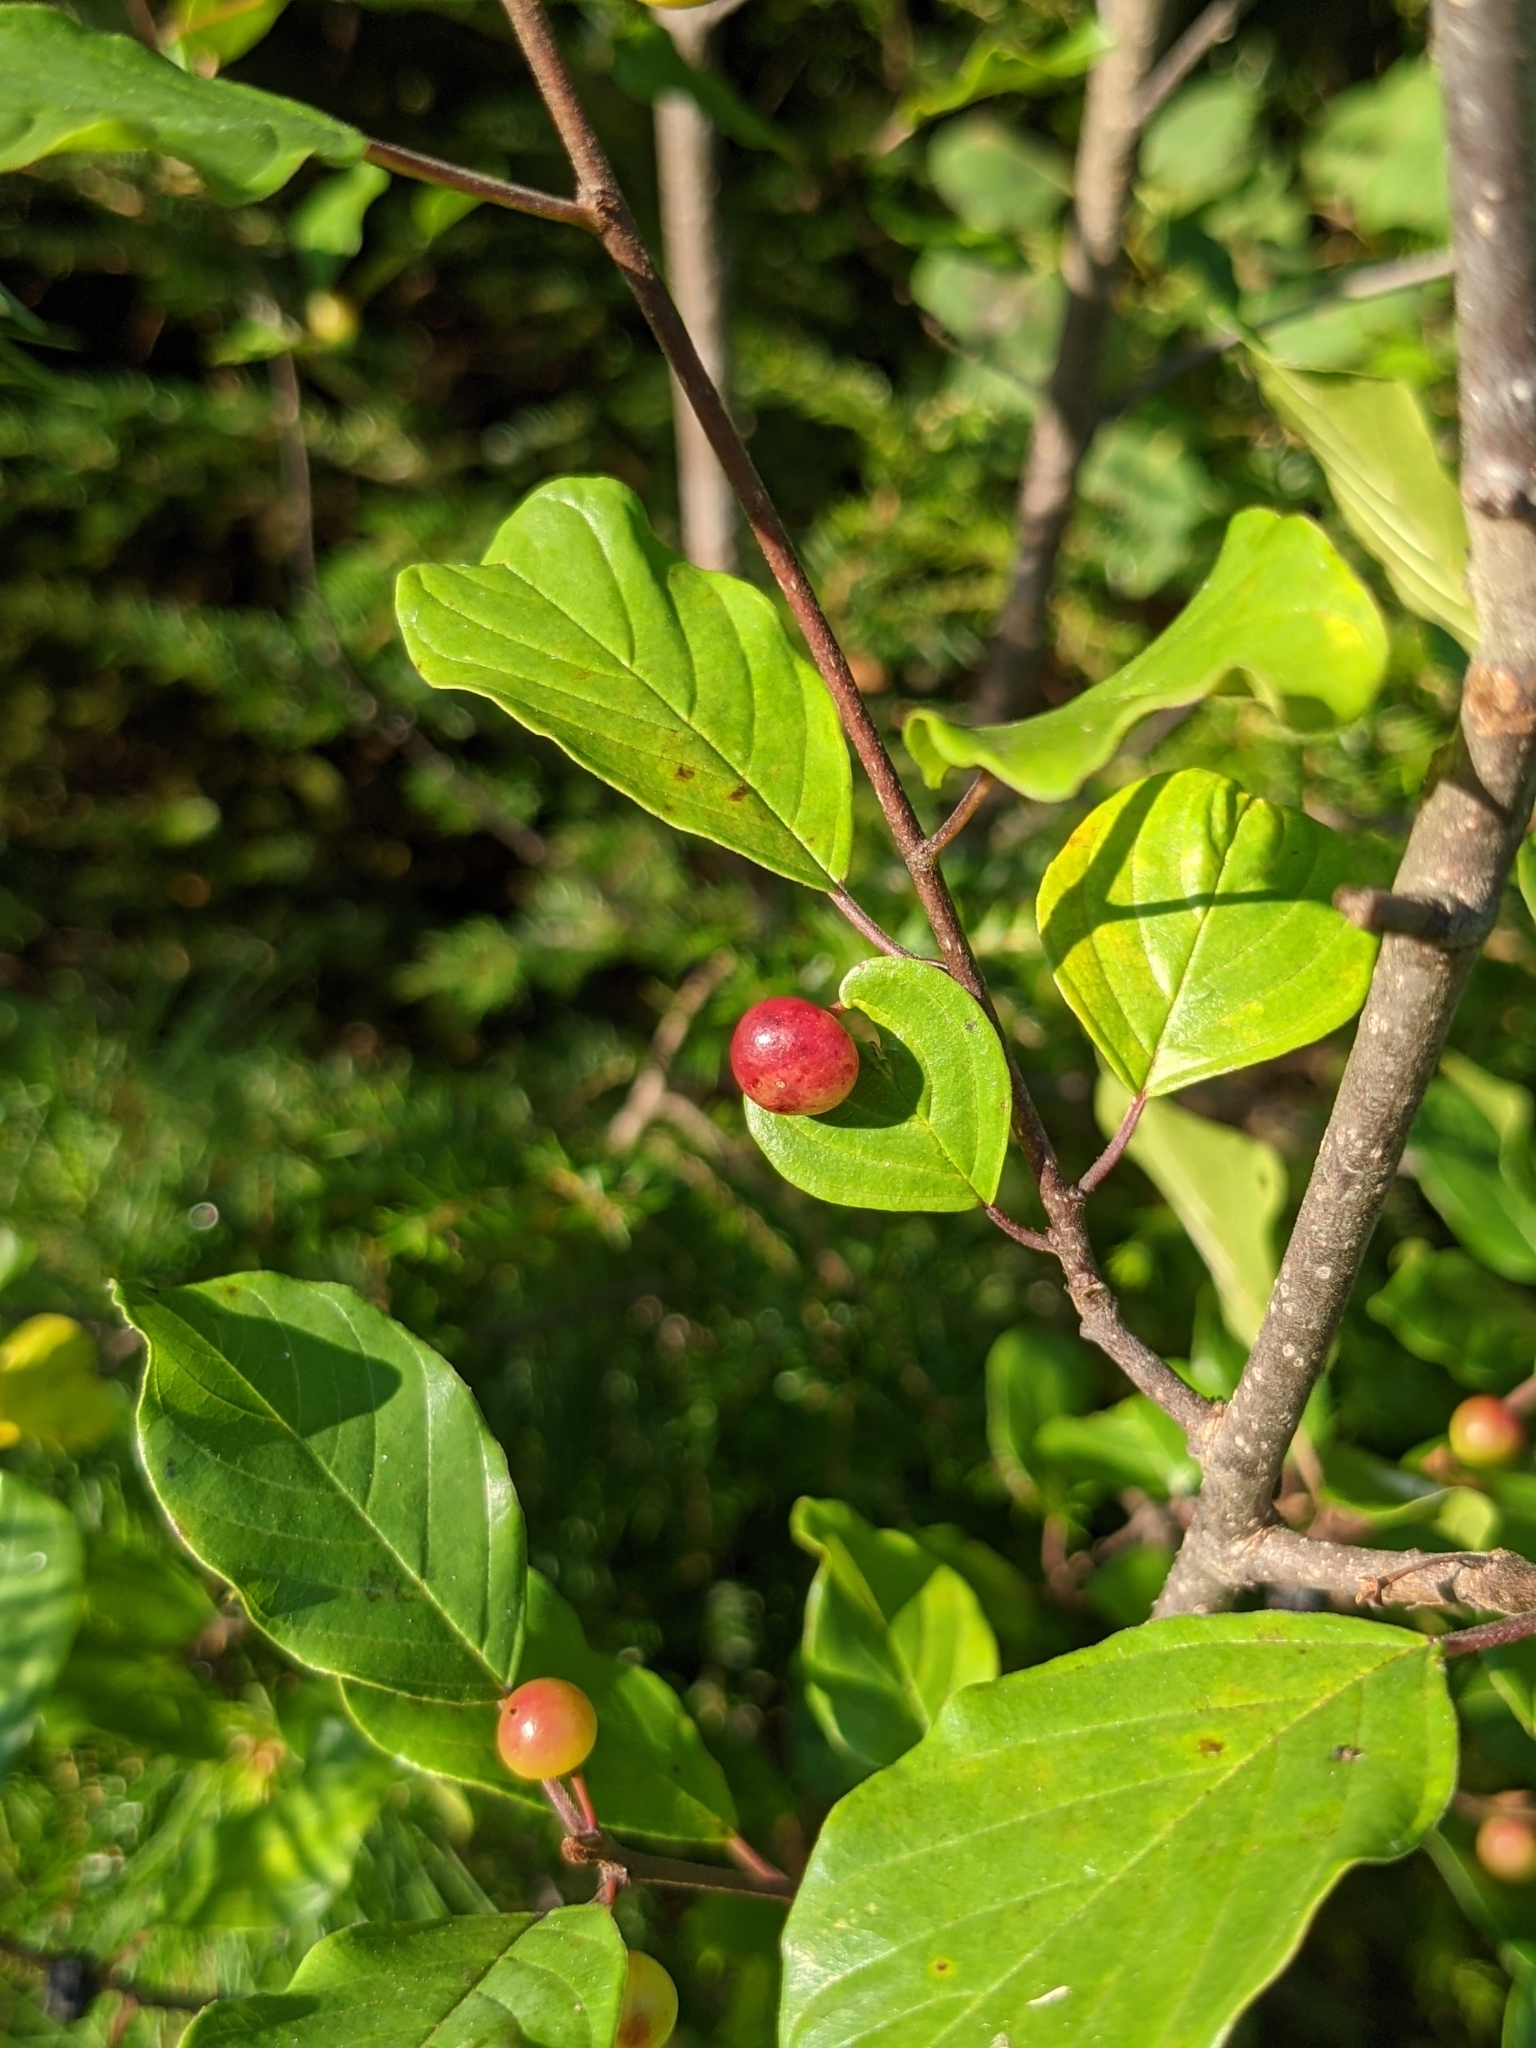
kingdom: Plantae
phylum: Tracheophyta
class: Magnoliopsida
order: Rosales
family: Rhamnaceae
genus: Frangula
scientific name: Frangula alnus
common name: Alder buckthorn
